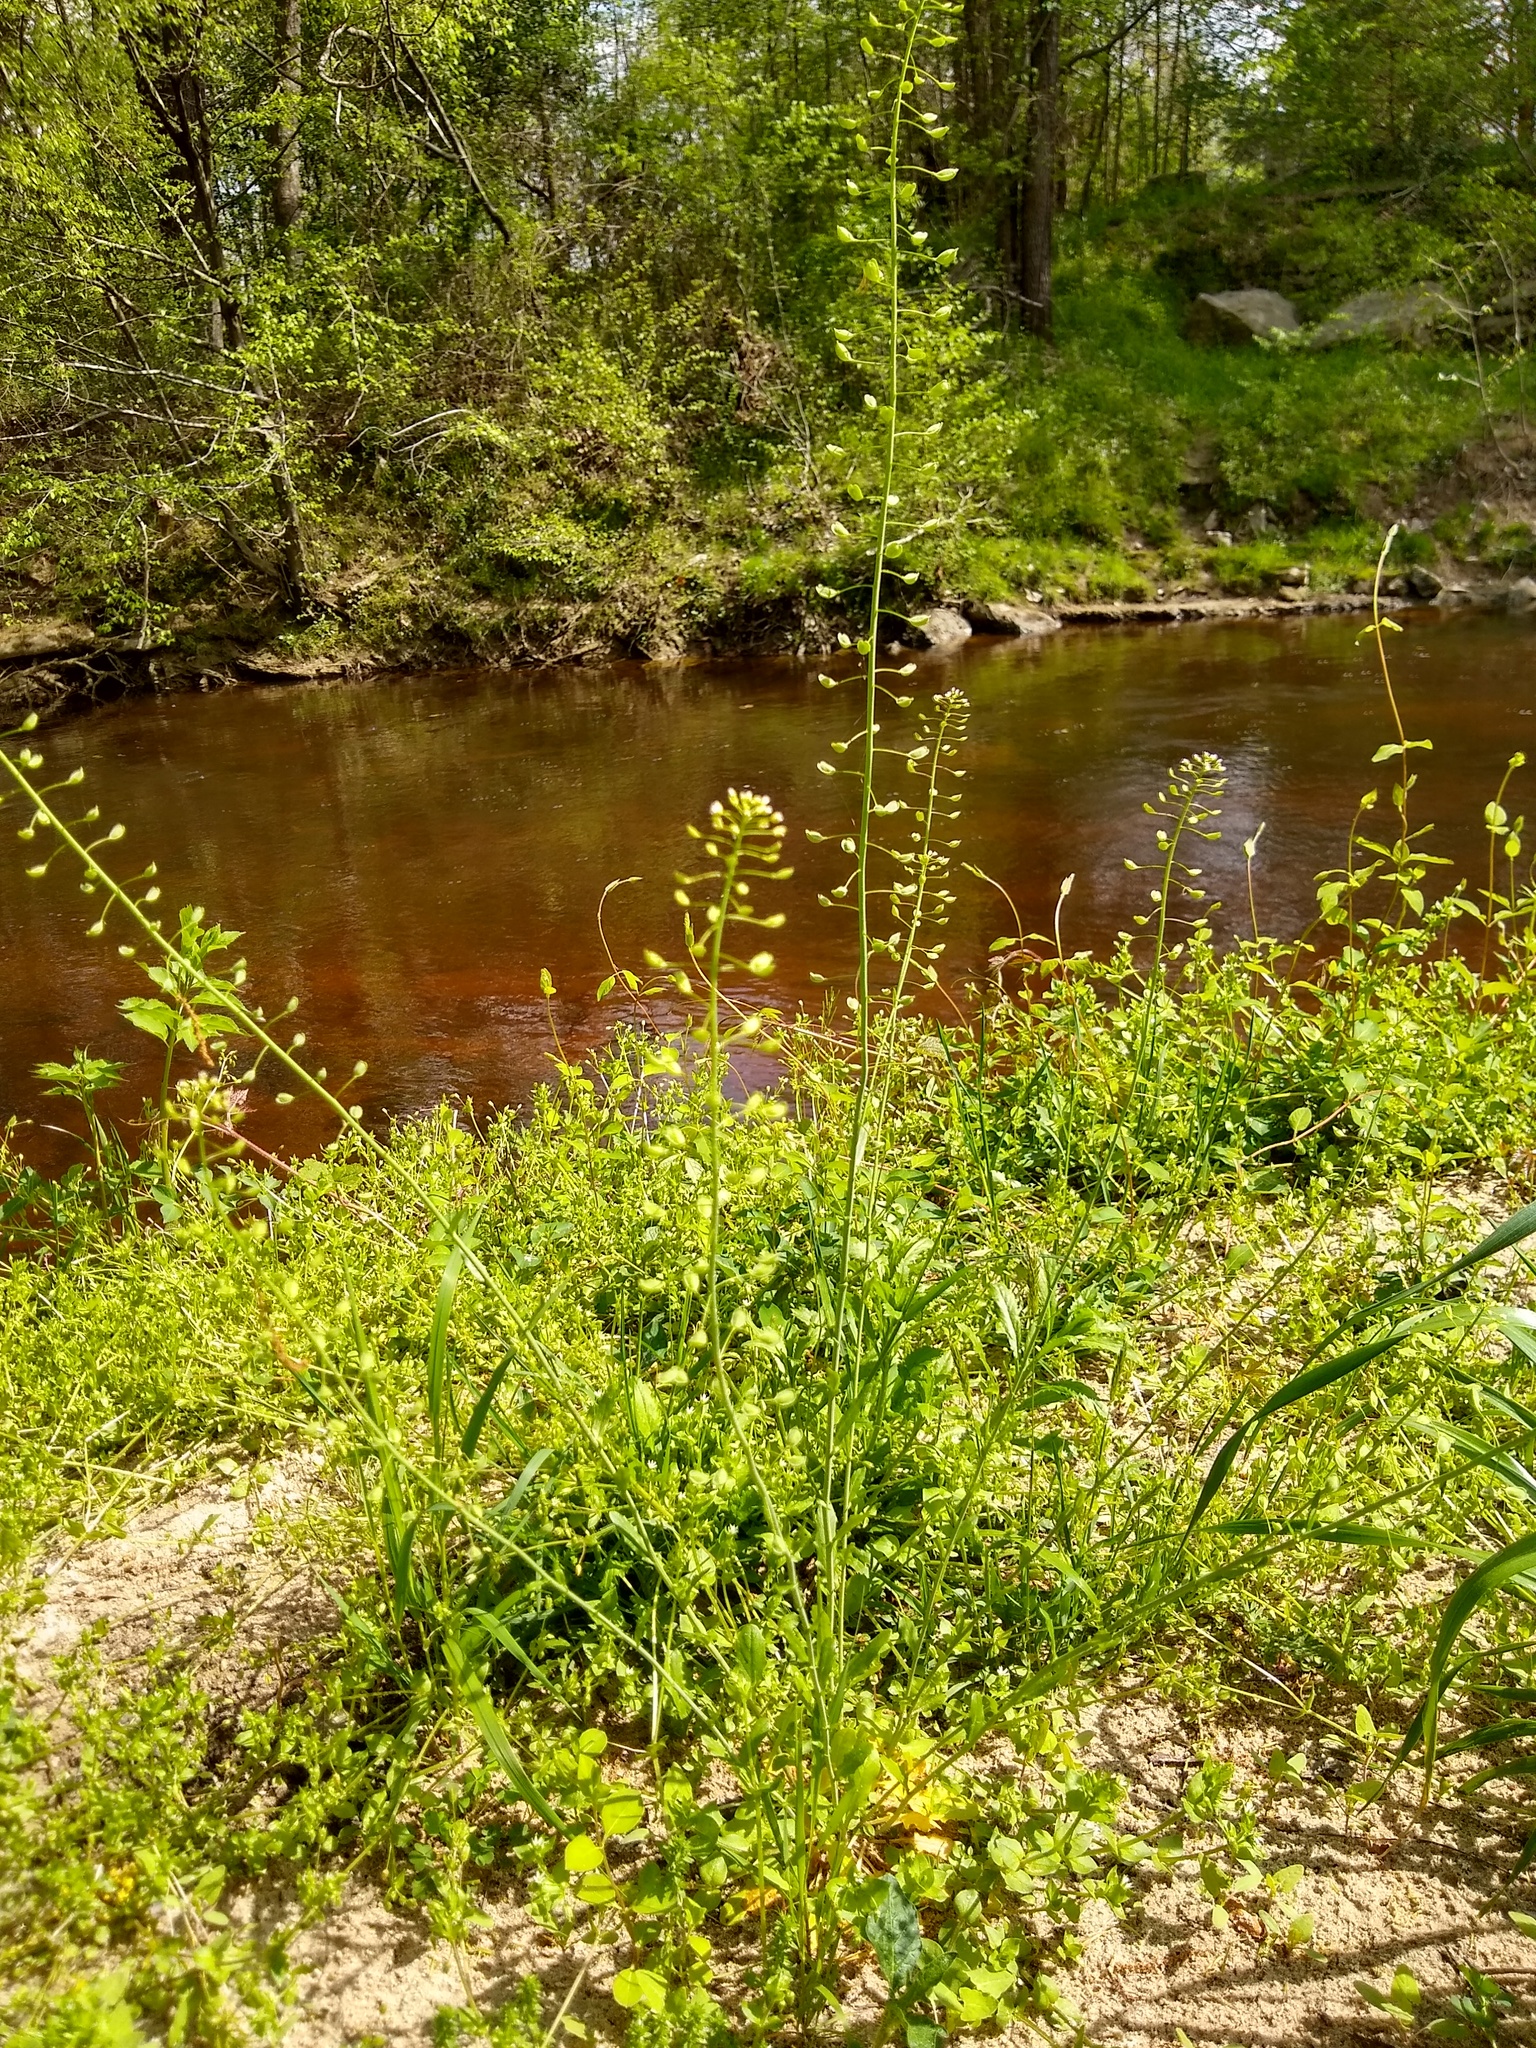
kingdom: Plantae
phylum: Tracheophyta
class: Magnoliopsida
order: Brassicales
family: Brassicaceae
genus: Mummenhoffia
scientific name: Mummenhoffia alliacea
